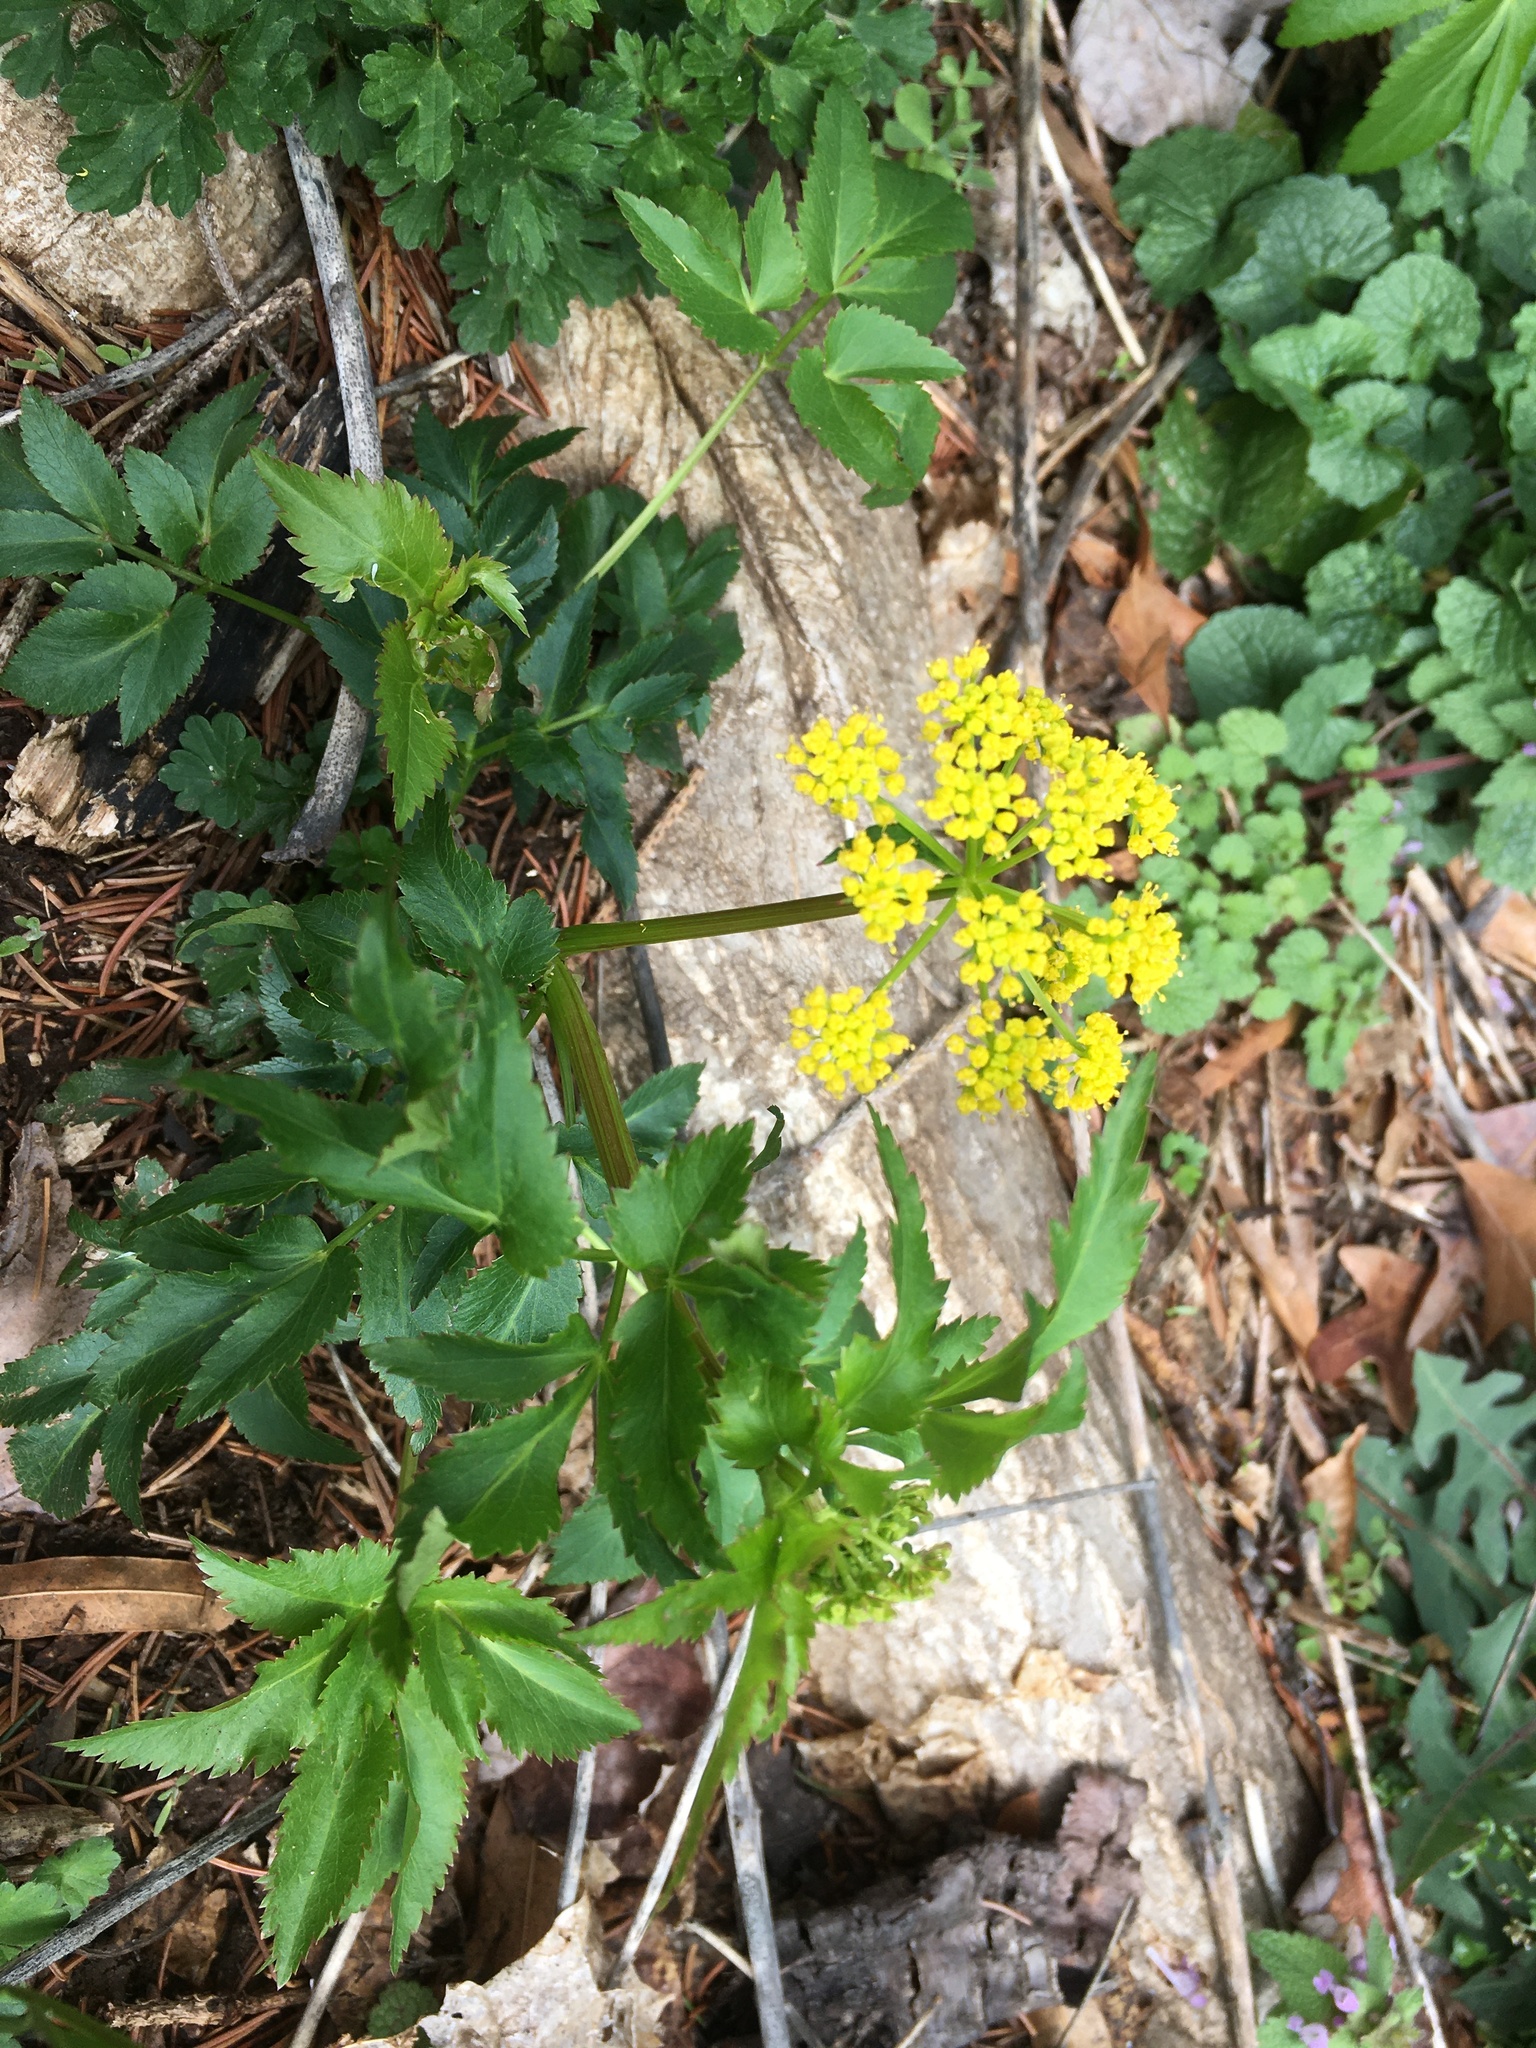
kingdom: Plantae
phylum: Tracheophyta
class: Magnoliopsida
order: Apiales
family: Apiaceae
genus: Zizia
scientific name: Zizia aurea
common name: Golden alexanders
